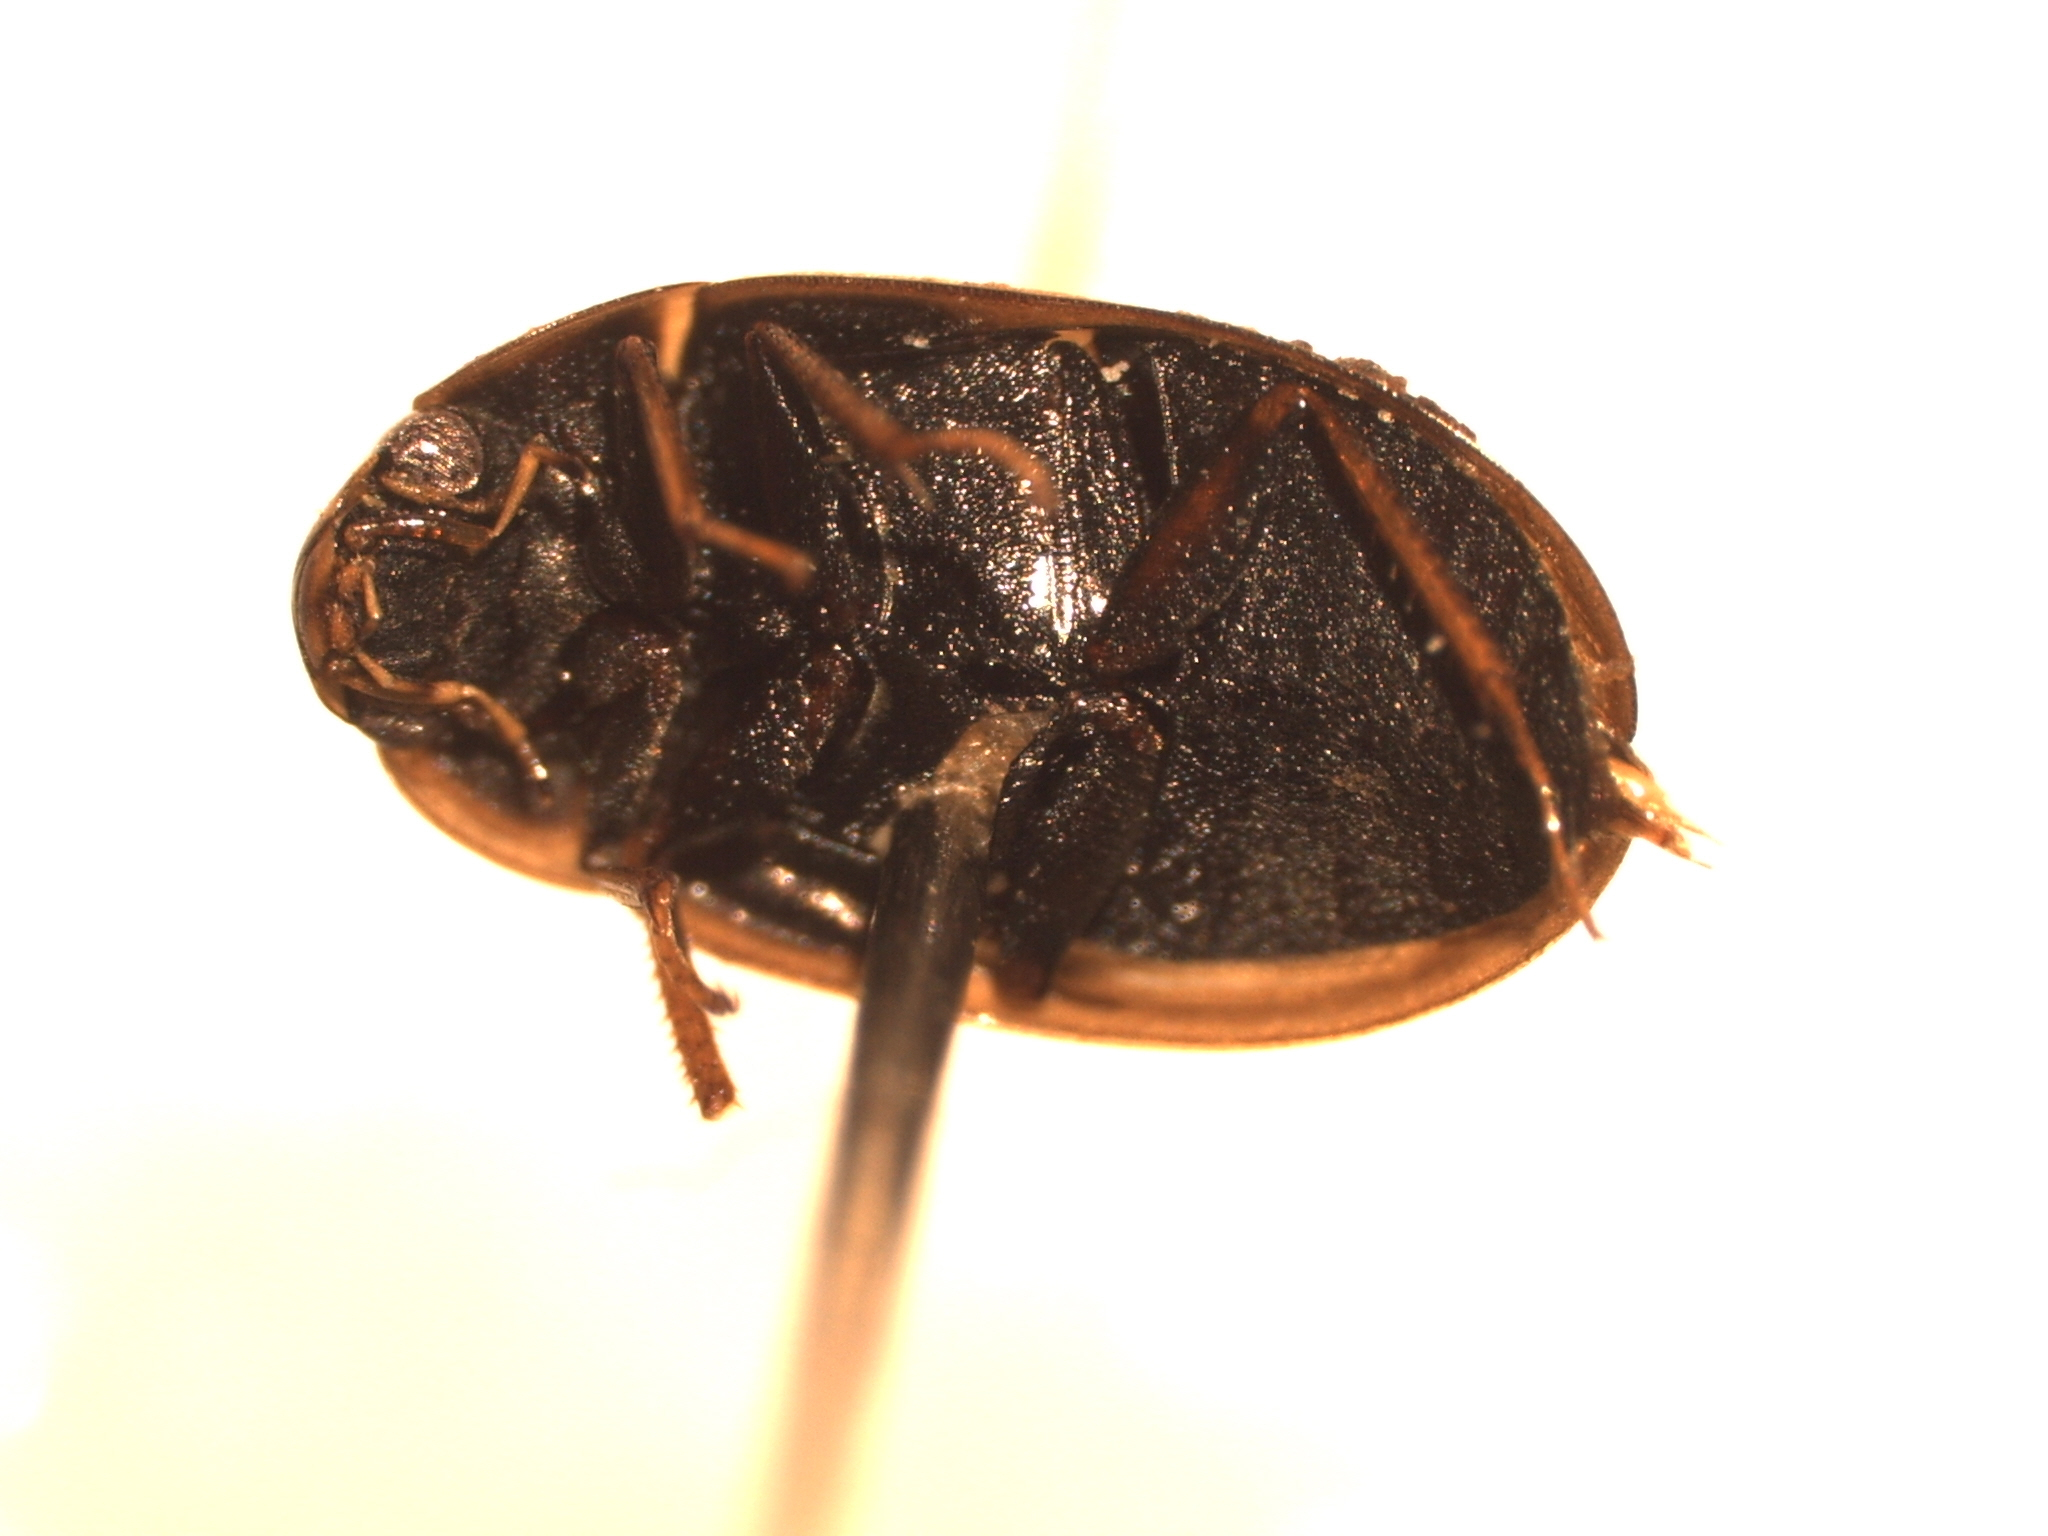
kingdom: Animalia
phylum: Arthropoda
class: Insecta
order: Coleoptera
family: Hydrophilidae
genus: Enochrus
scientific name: Enochrus
